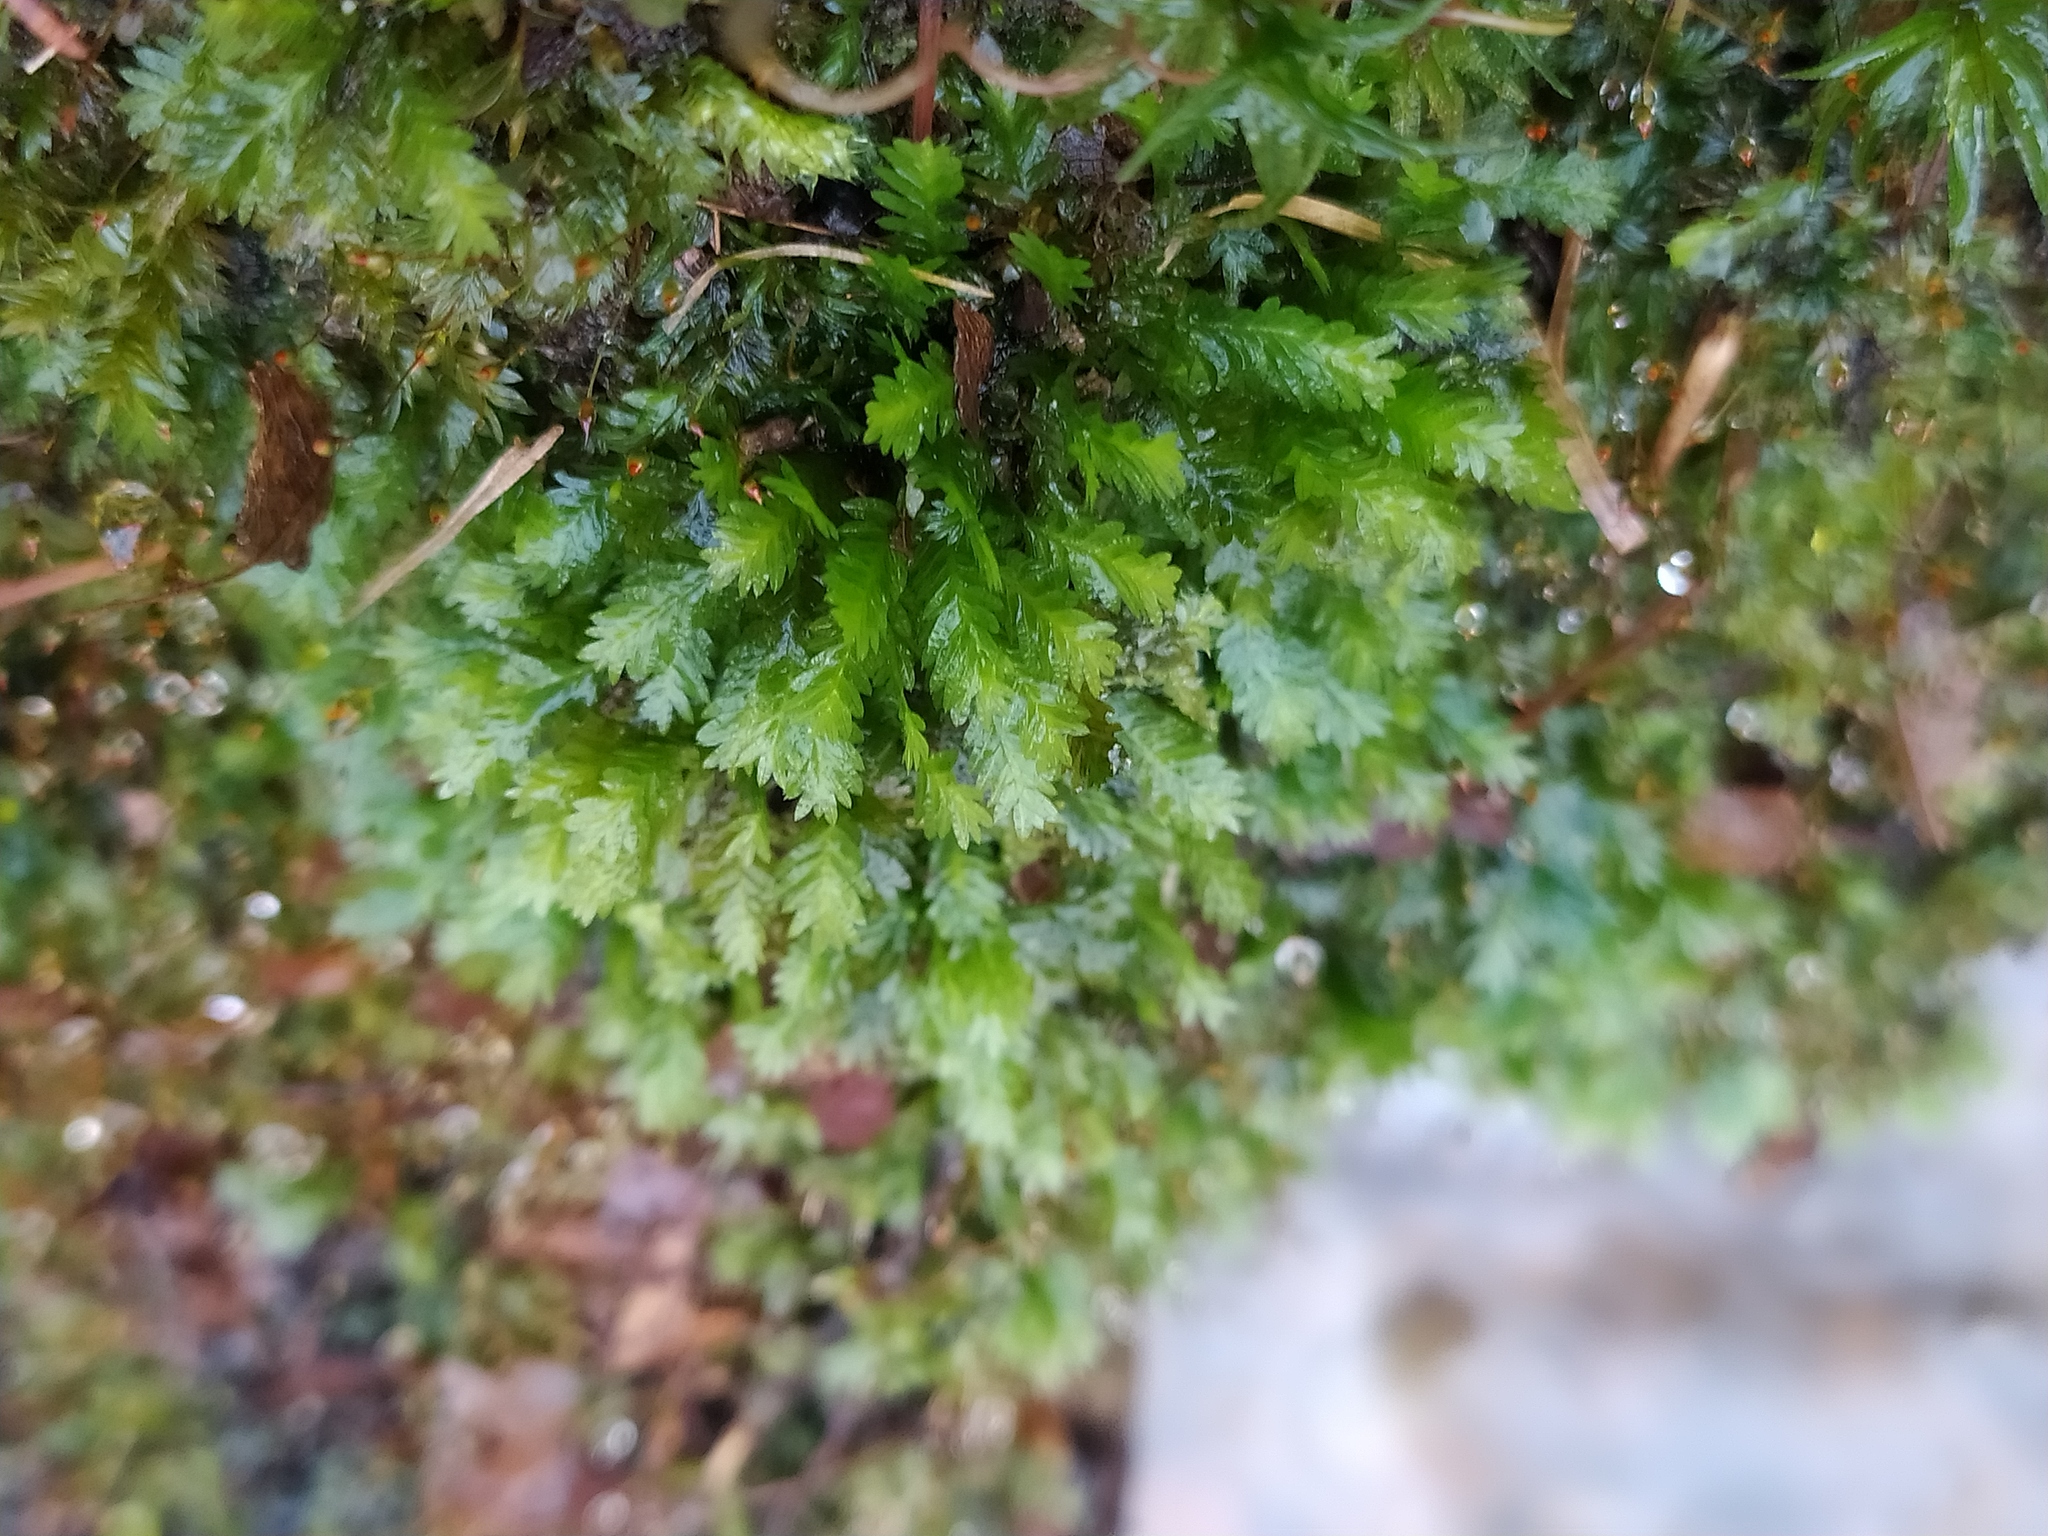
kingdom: Plantae
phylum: Bryophyta
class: Bryopsida
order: Dicranales
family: Fissidentaceae
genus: Fissidens
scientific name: Fissidens taxifolius
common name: Yew-leaved pocket moss
